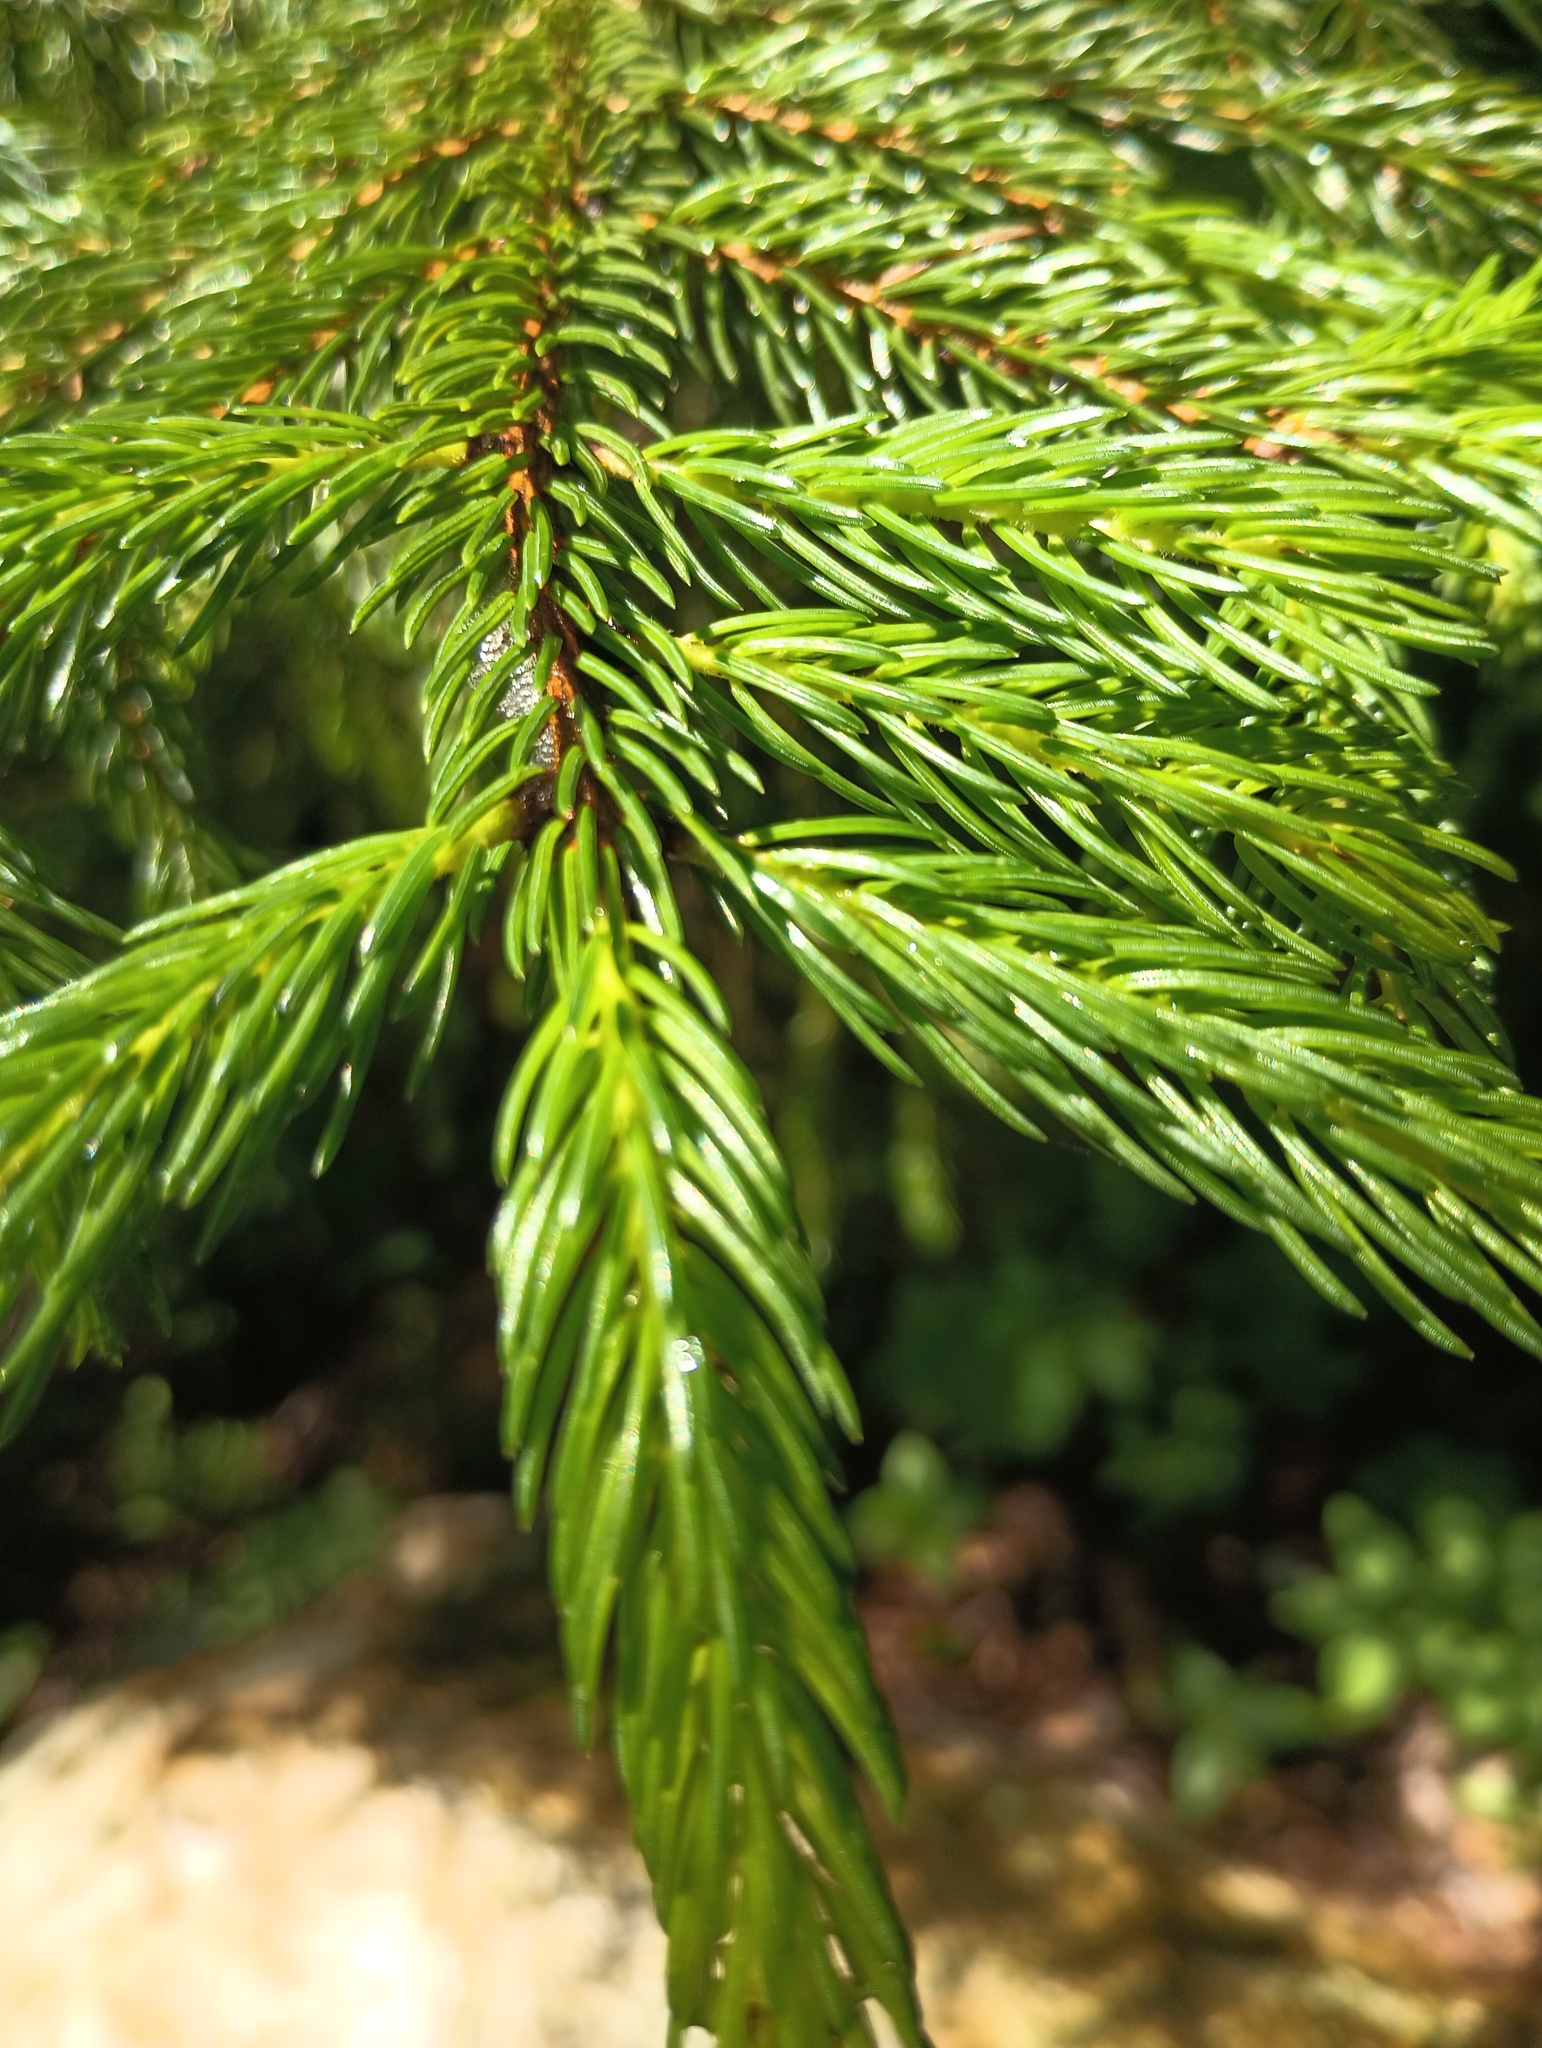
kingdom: Plantae
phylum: Tracheophyta
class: Pinopsida
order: Pinales
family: Pinaceae
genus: Picea
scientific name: Picea rubens
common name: Red spruce
